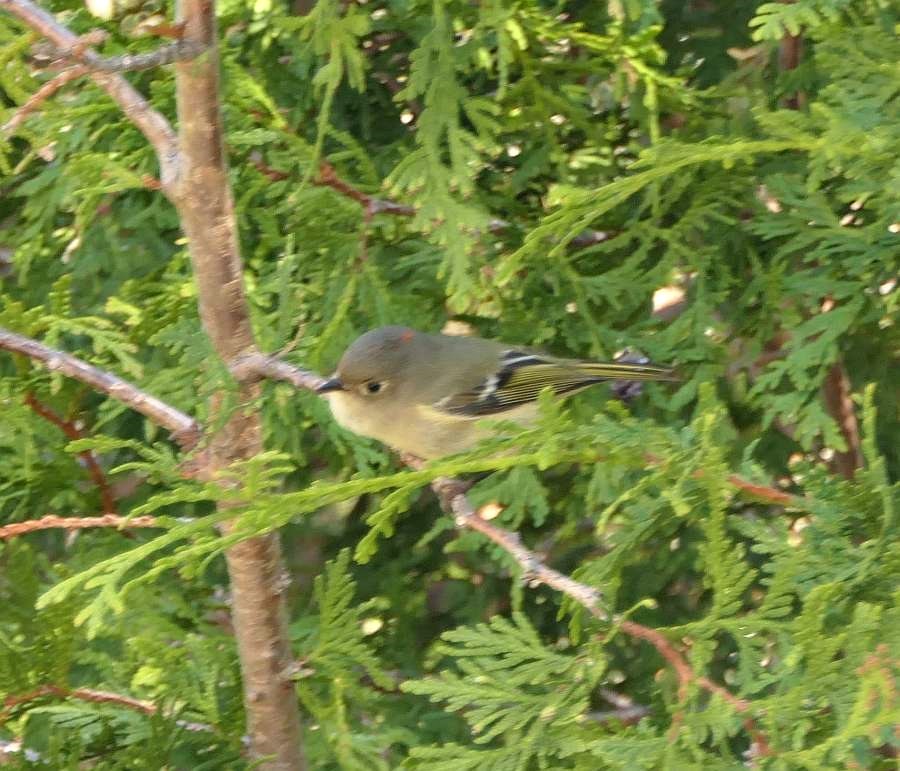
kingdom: Animalia
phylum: Chordata
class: Aves
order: Passeriformes
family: Regulidae
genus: Regulus
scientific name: Regulus calendula
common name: Ruby-crowned kinglet
